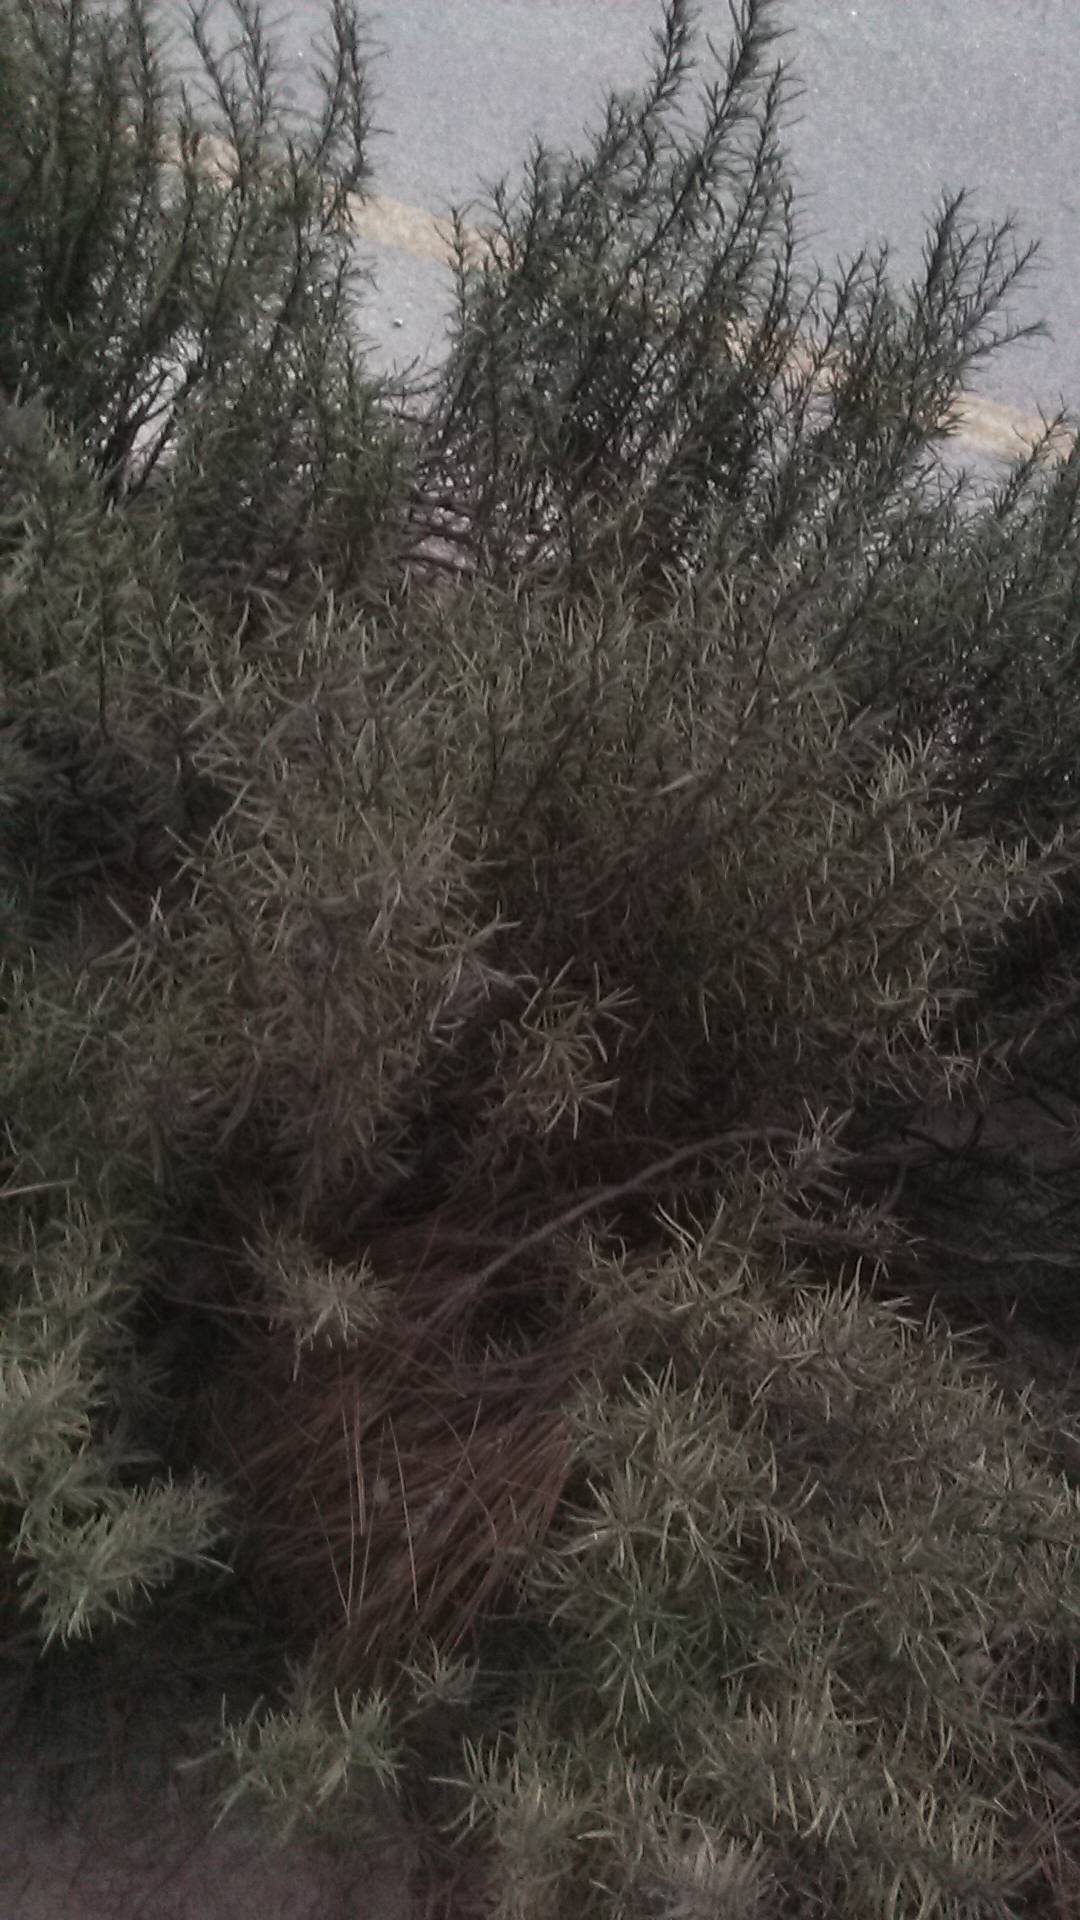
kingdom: Plantae
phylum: Tracheophyta
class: Magnoliopsida
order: Lamiales
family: Lamiaceae
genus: Salvia
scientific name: Salvia rosmarinus
